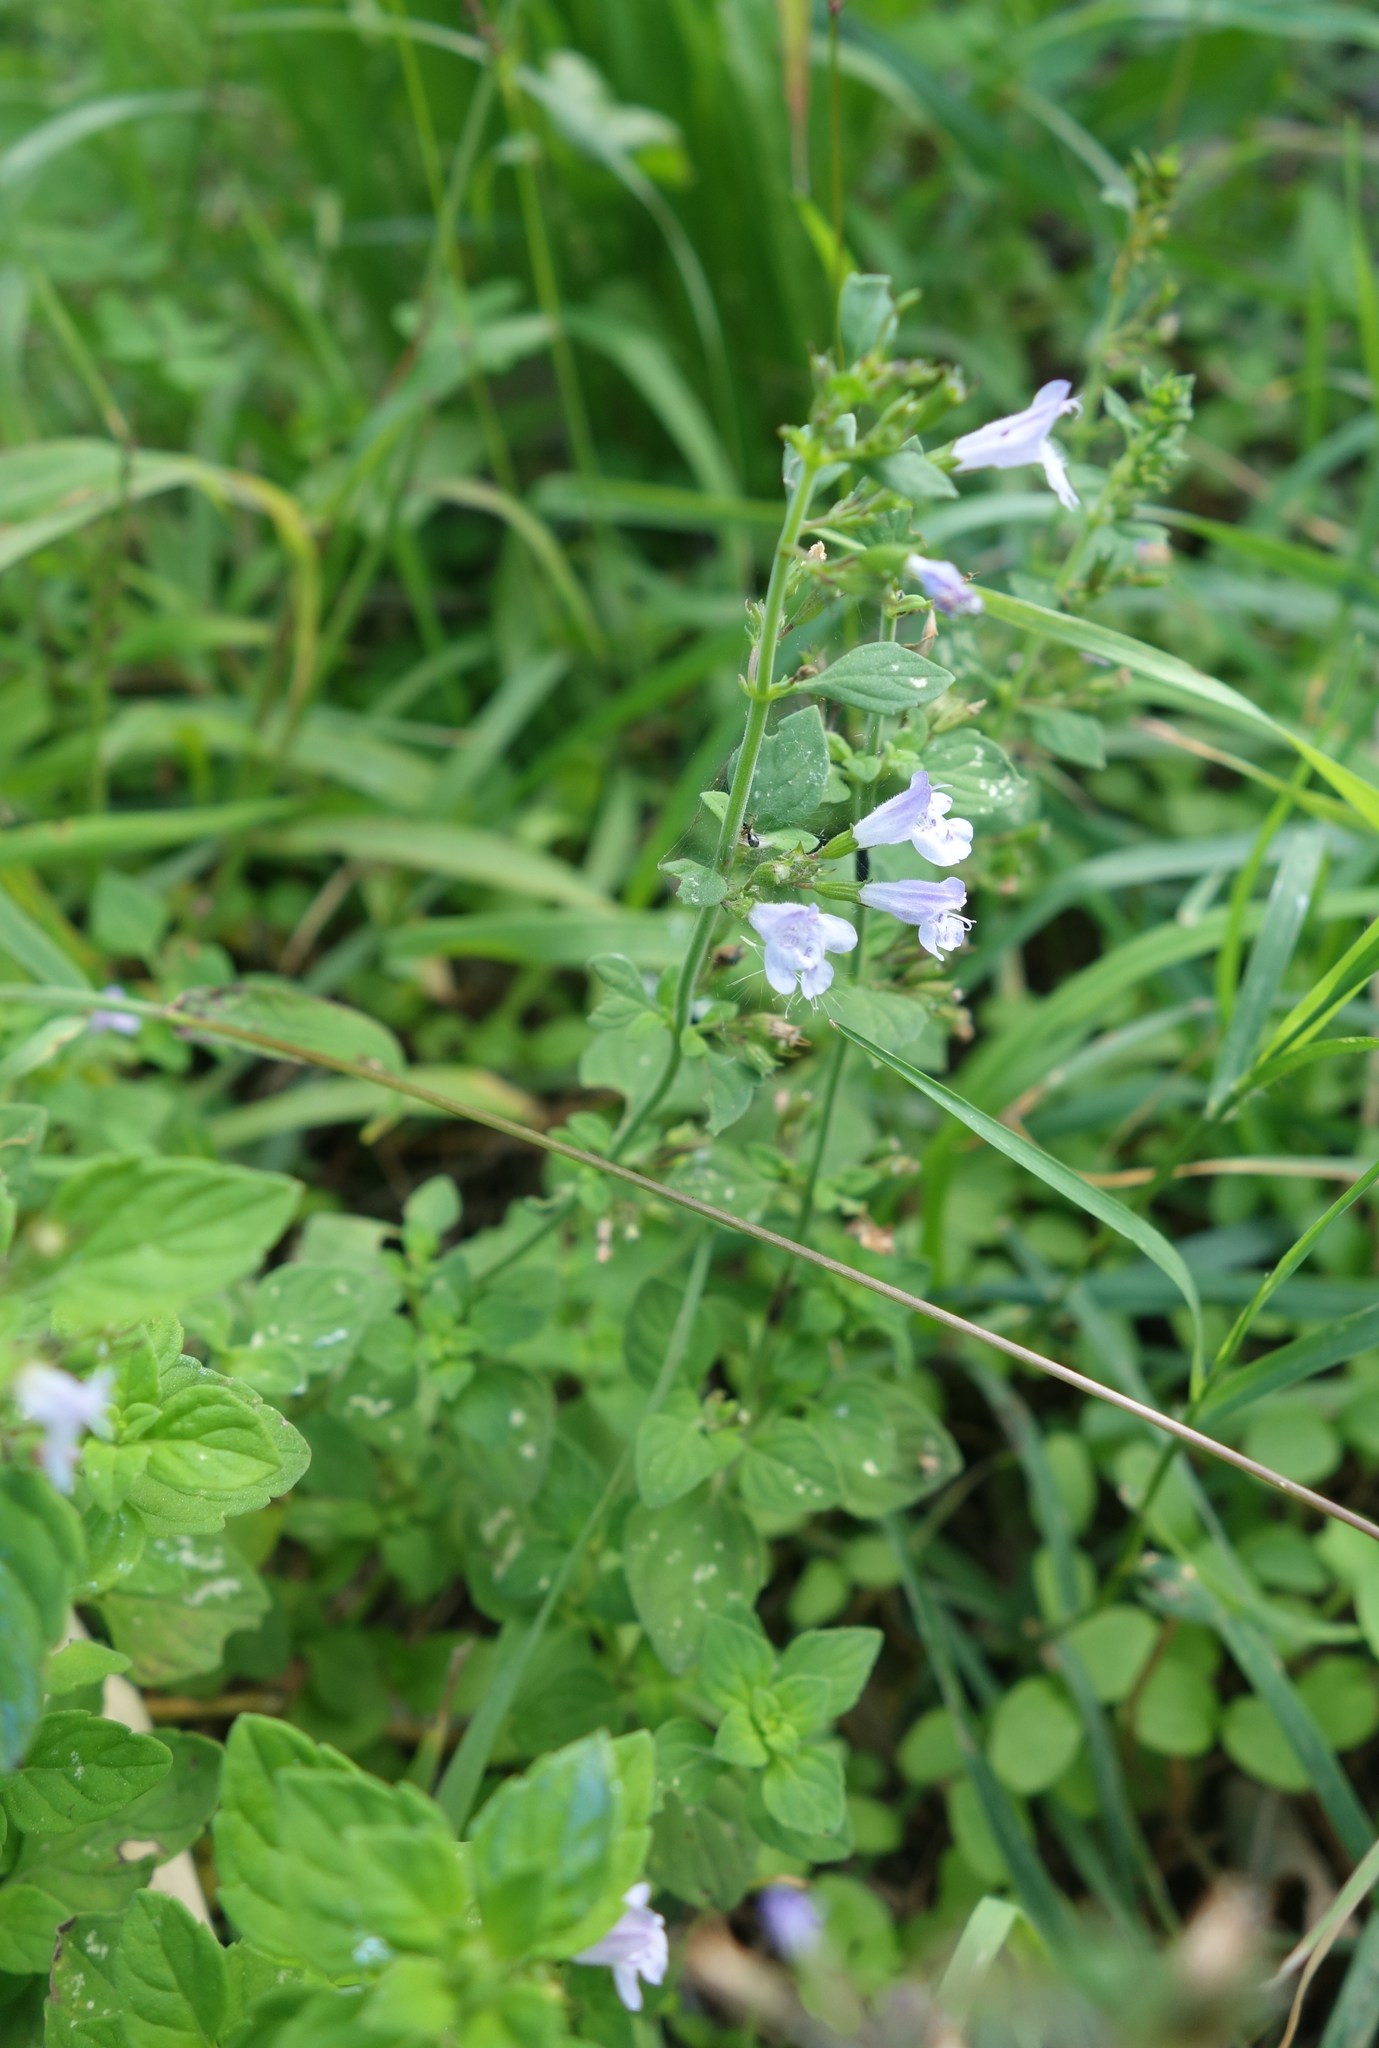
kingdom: Plantae
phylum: Tracheophyta
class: Magnoliopsida
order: Lamiales
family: Lamiaceae
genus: Clinopodium
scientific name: Clinopodium nepeta
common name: Lesser calamint
